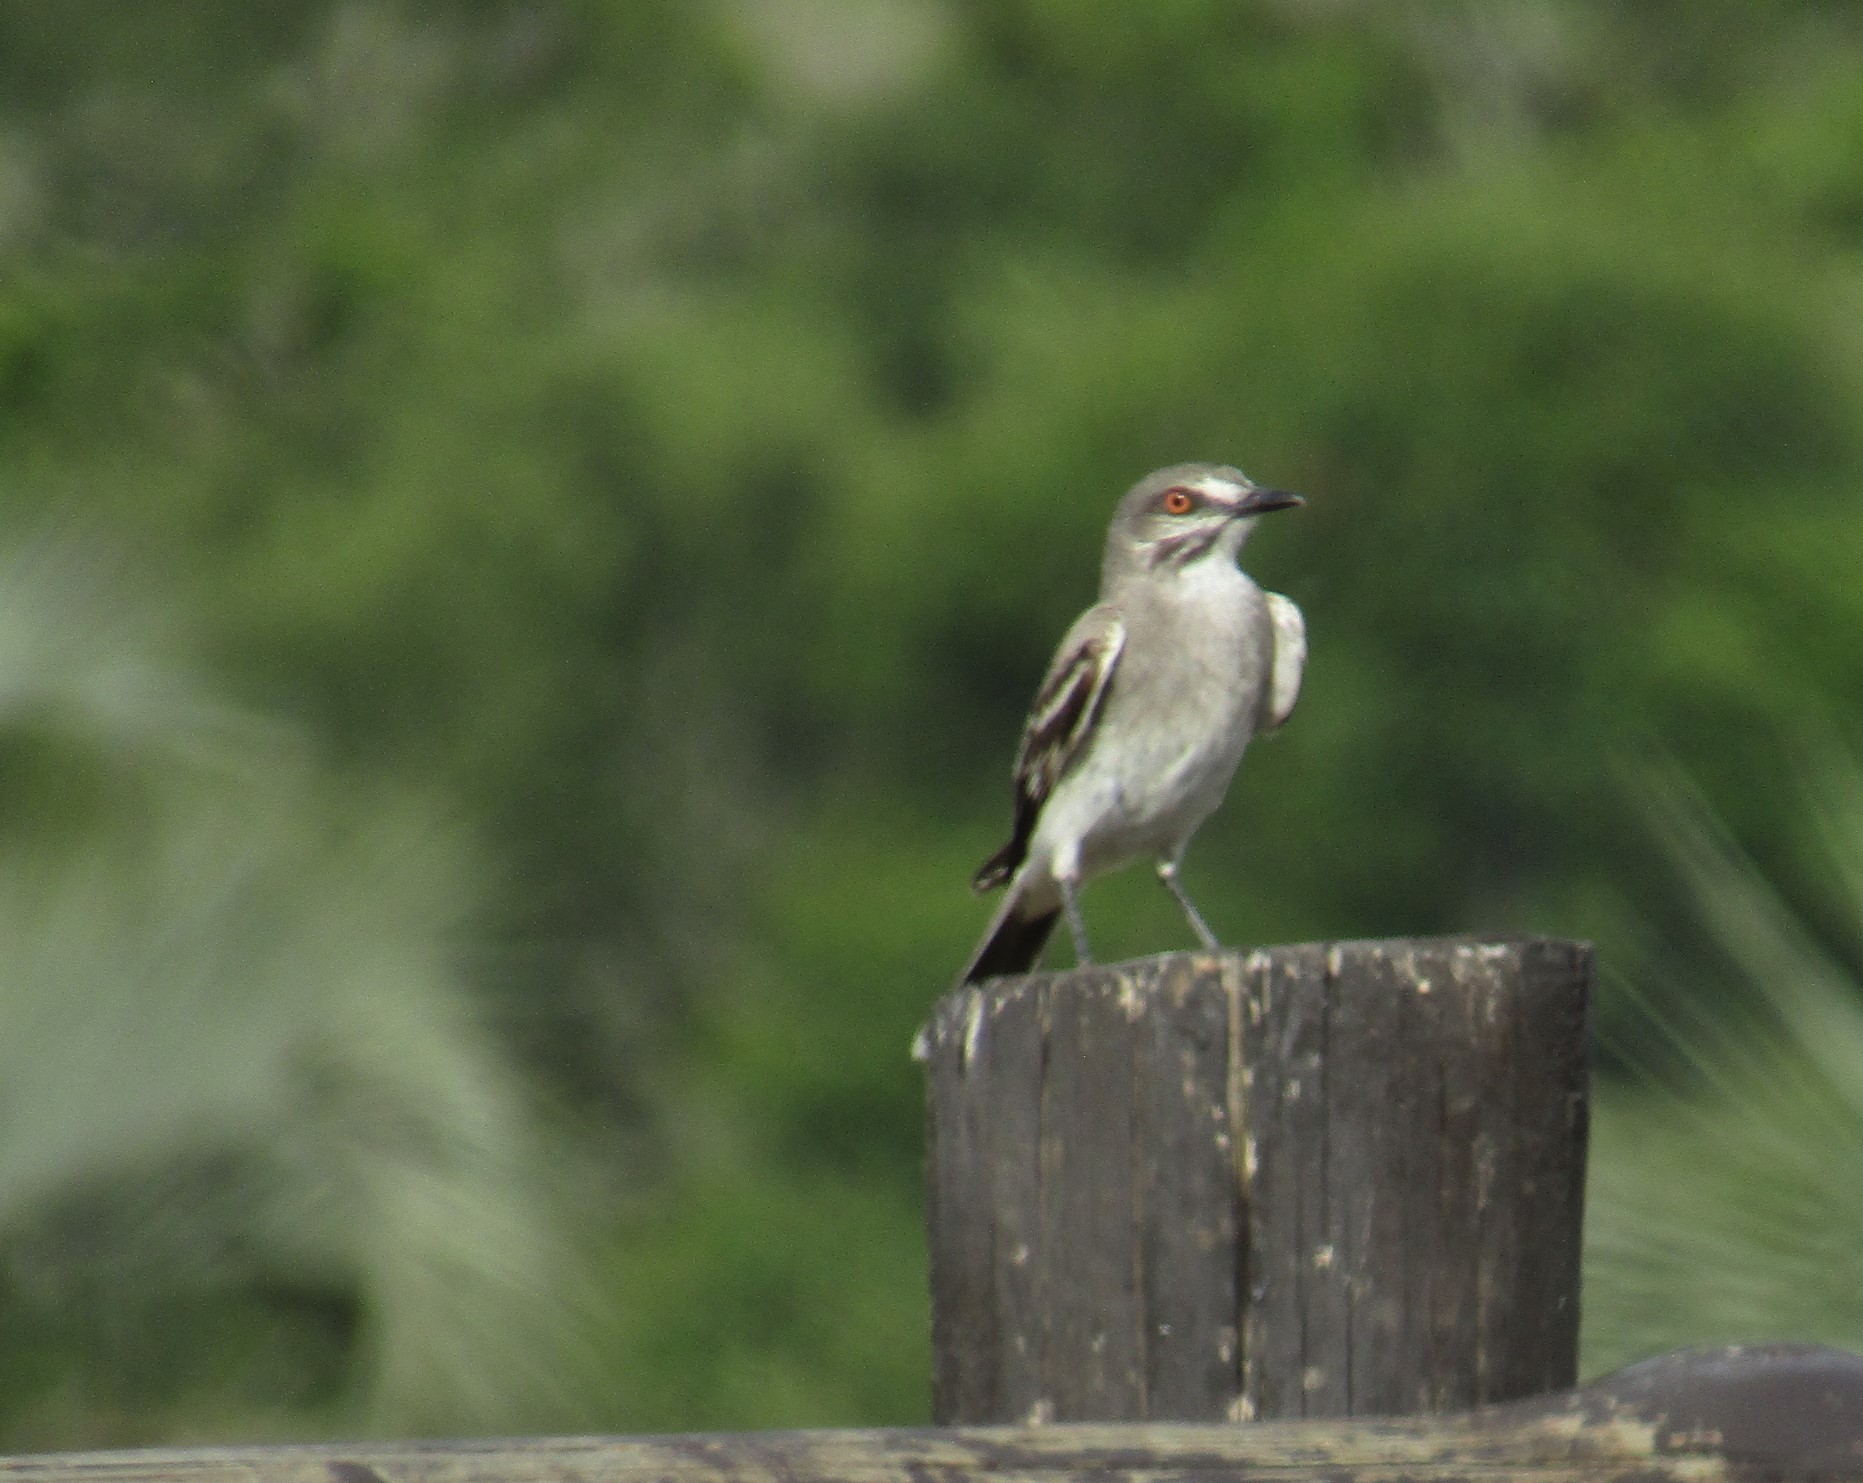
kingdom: Animalia
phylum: Chordata
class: Aves
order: Passeriformes
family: Tyrannidae
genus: Xolmis
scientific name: Xolmis cinereus
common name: Grey monjita
